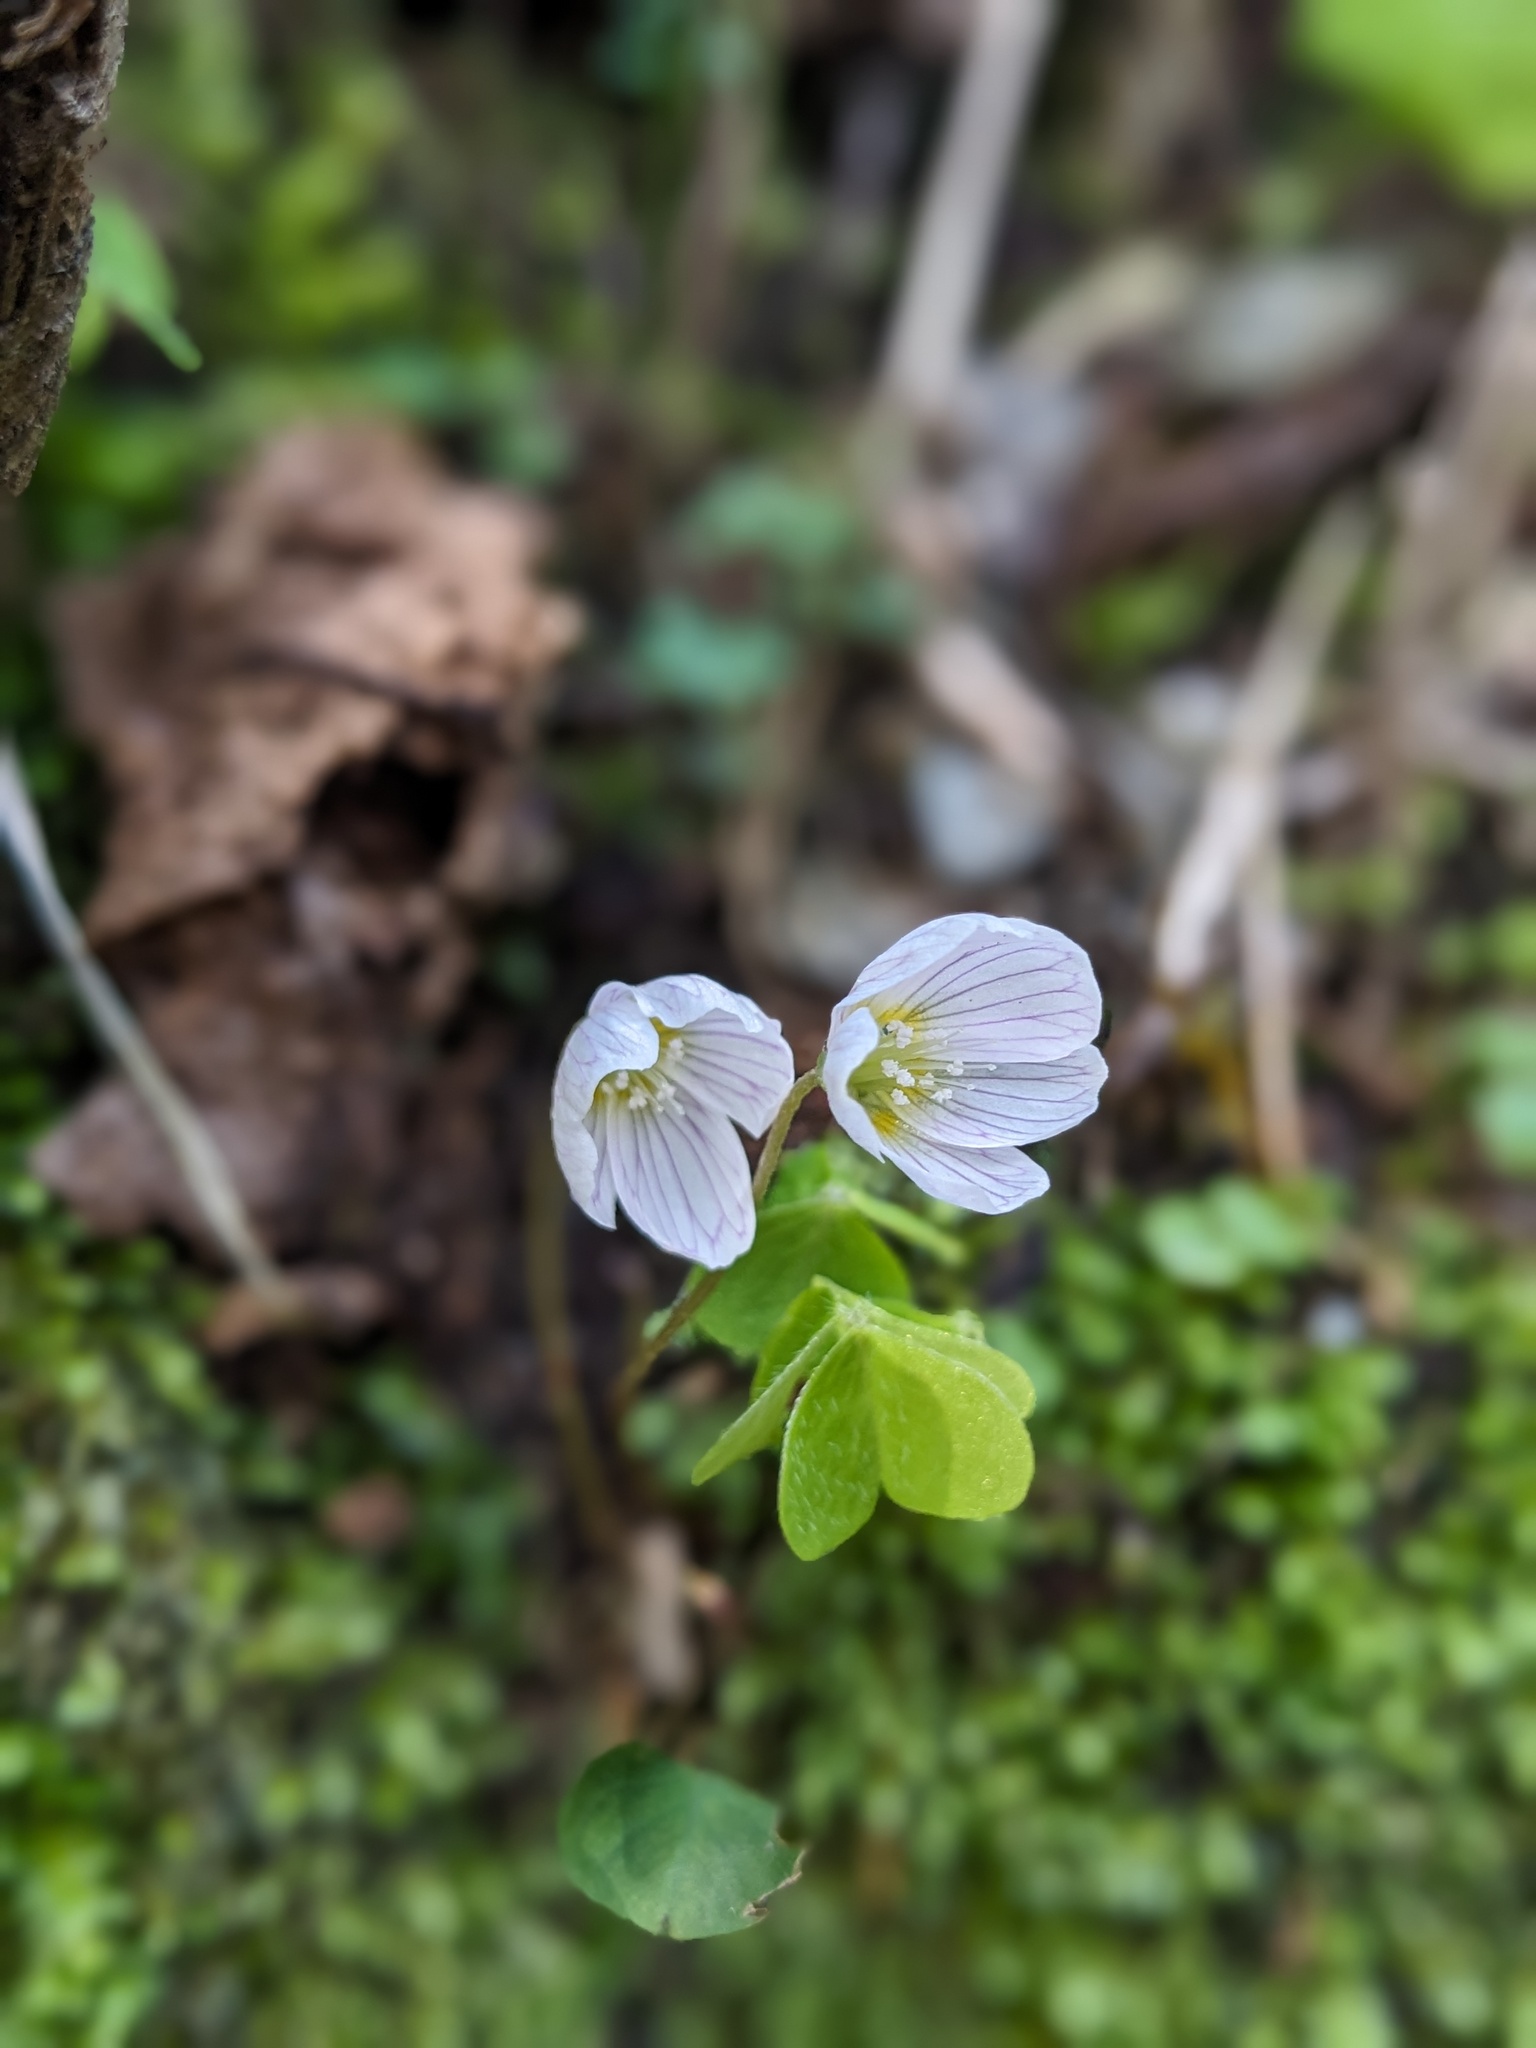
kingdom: Plantae
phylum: Tracheophyta
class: Magnoliopsida
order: Oxalidales
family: Oxalidaceae
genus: Oxalis
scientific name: Oxalis acetosella
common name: Wood-sorrel
